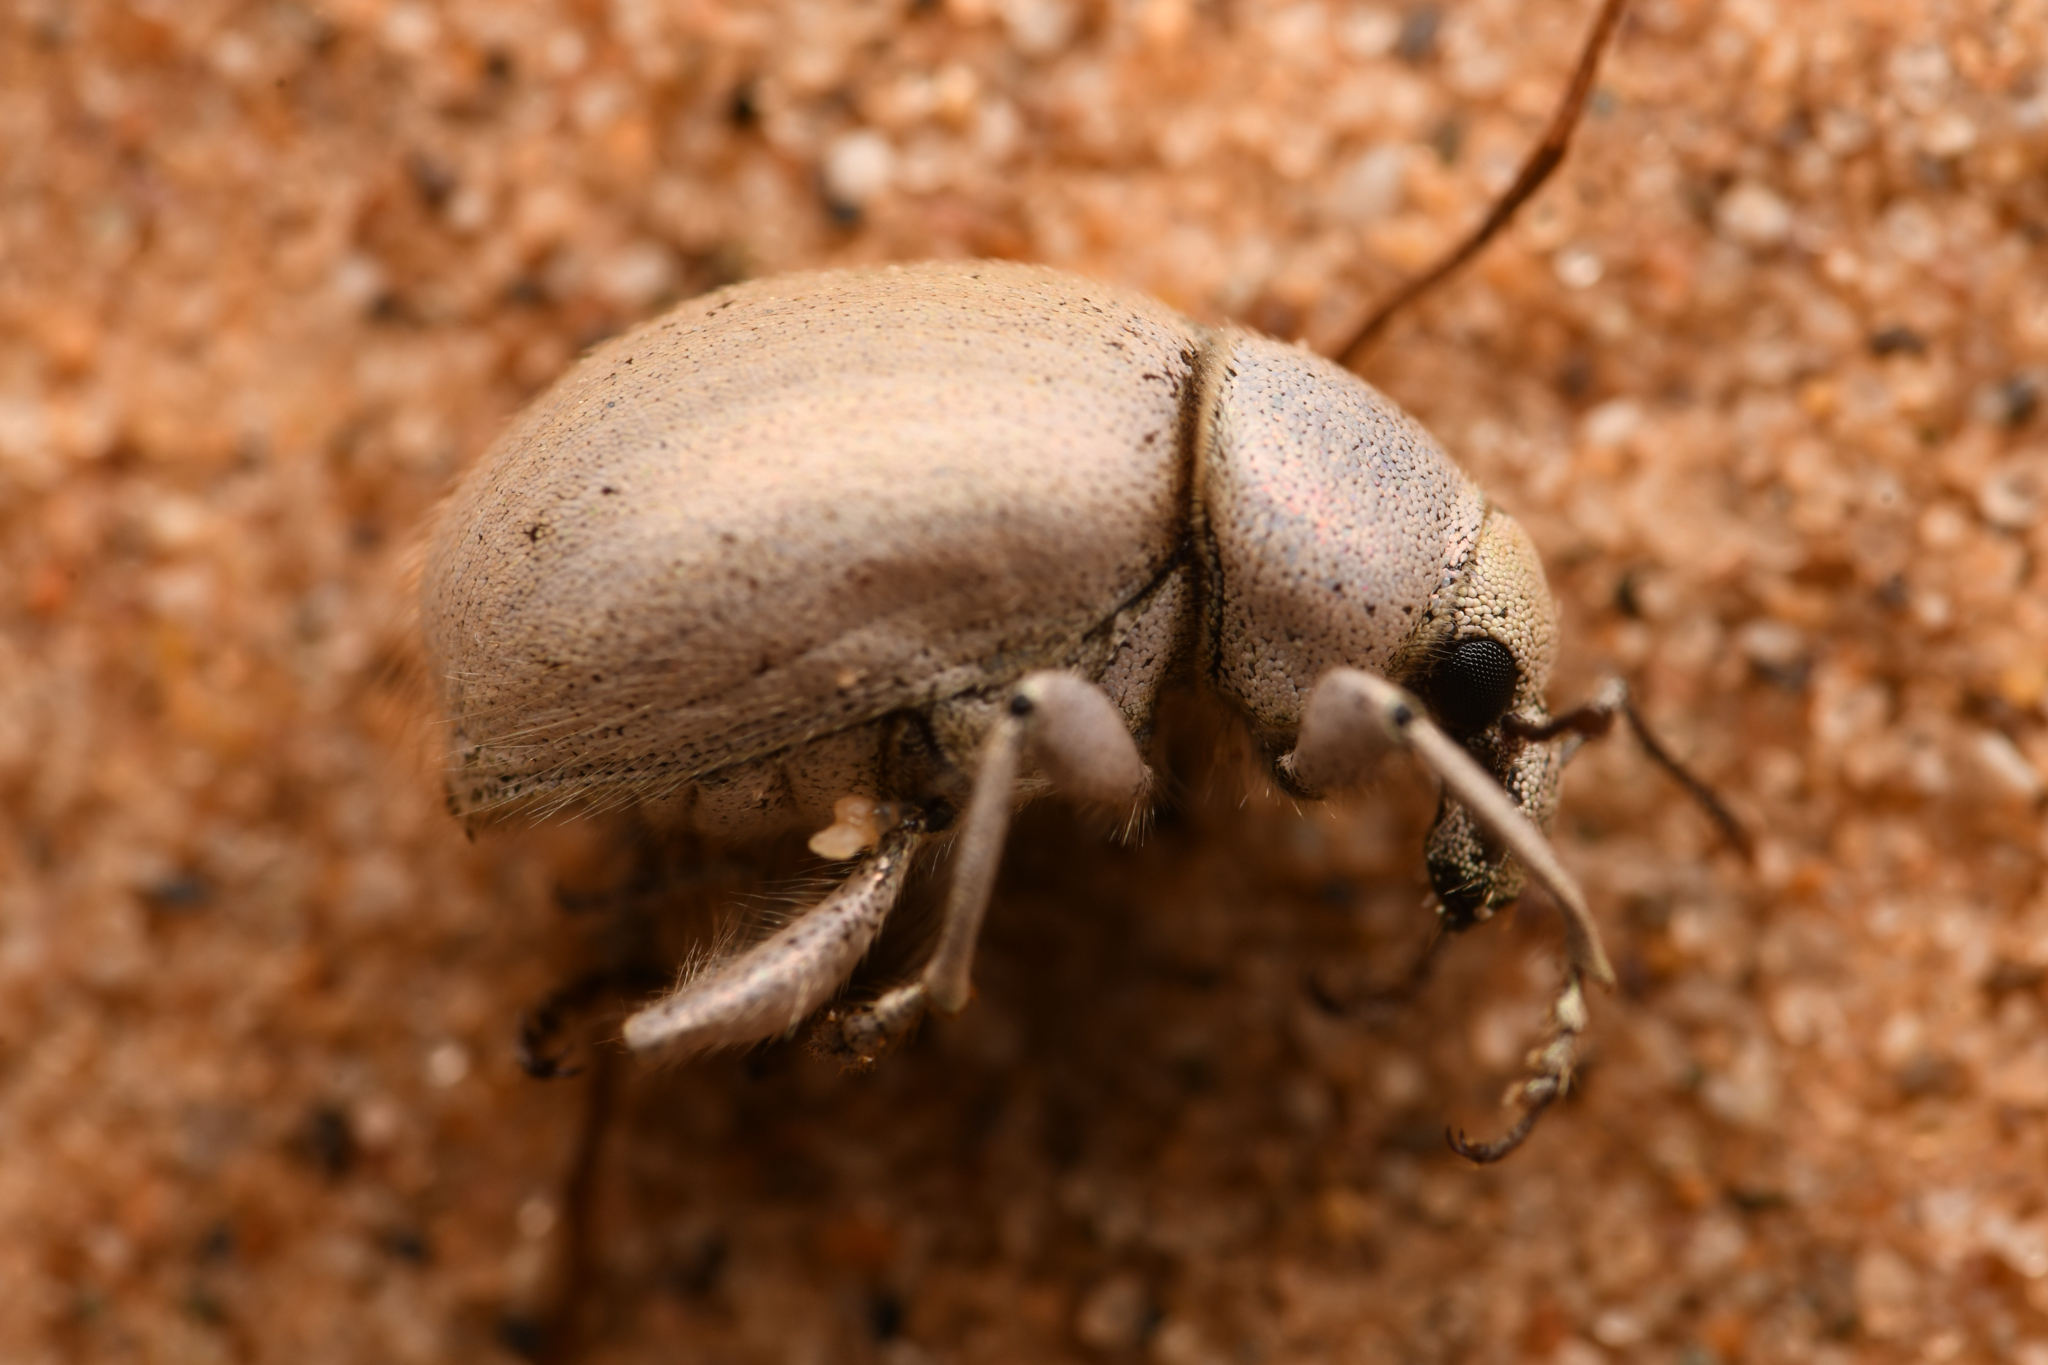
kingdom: Animalia
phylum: Arthropoda
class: Insecta
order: Coleoptera
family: Curculionidae
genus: Trigonoscuta
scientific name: Trigonoscuta rothi
